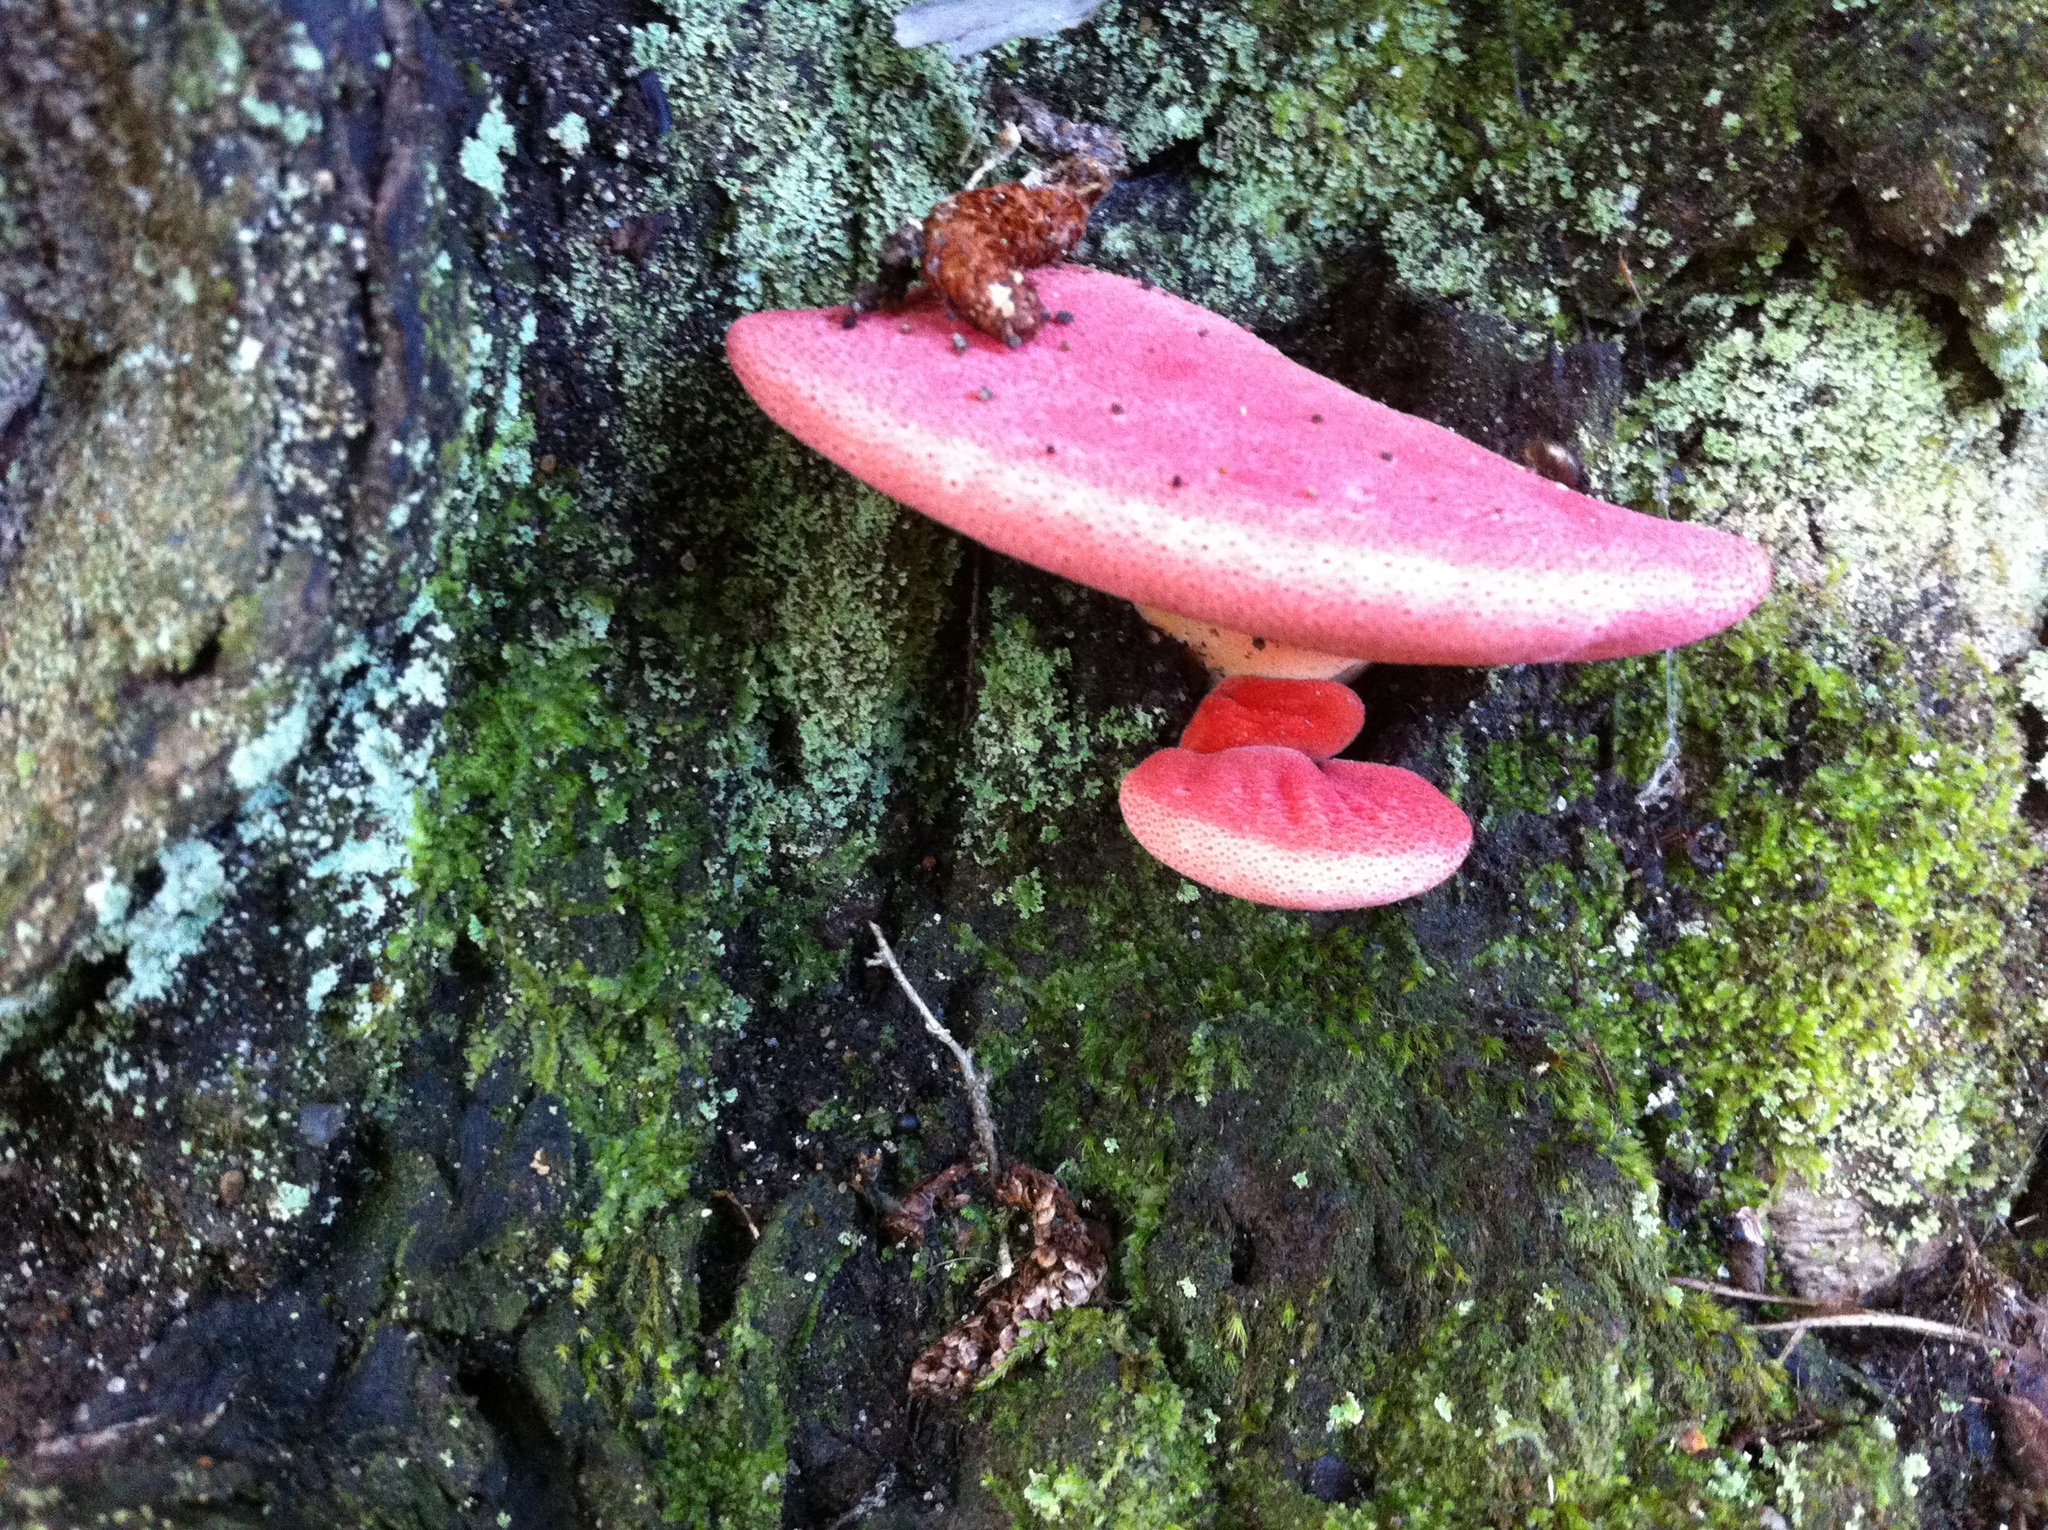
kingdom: Fungi
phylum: Basidiomycota
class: Agaricomycetes
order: Agaricales
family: Fistulinaceae
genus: Fistulina
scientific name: Fistulina hepatica
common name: Beef-steak fungus
